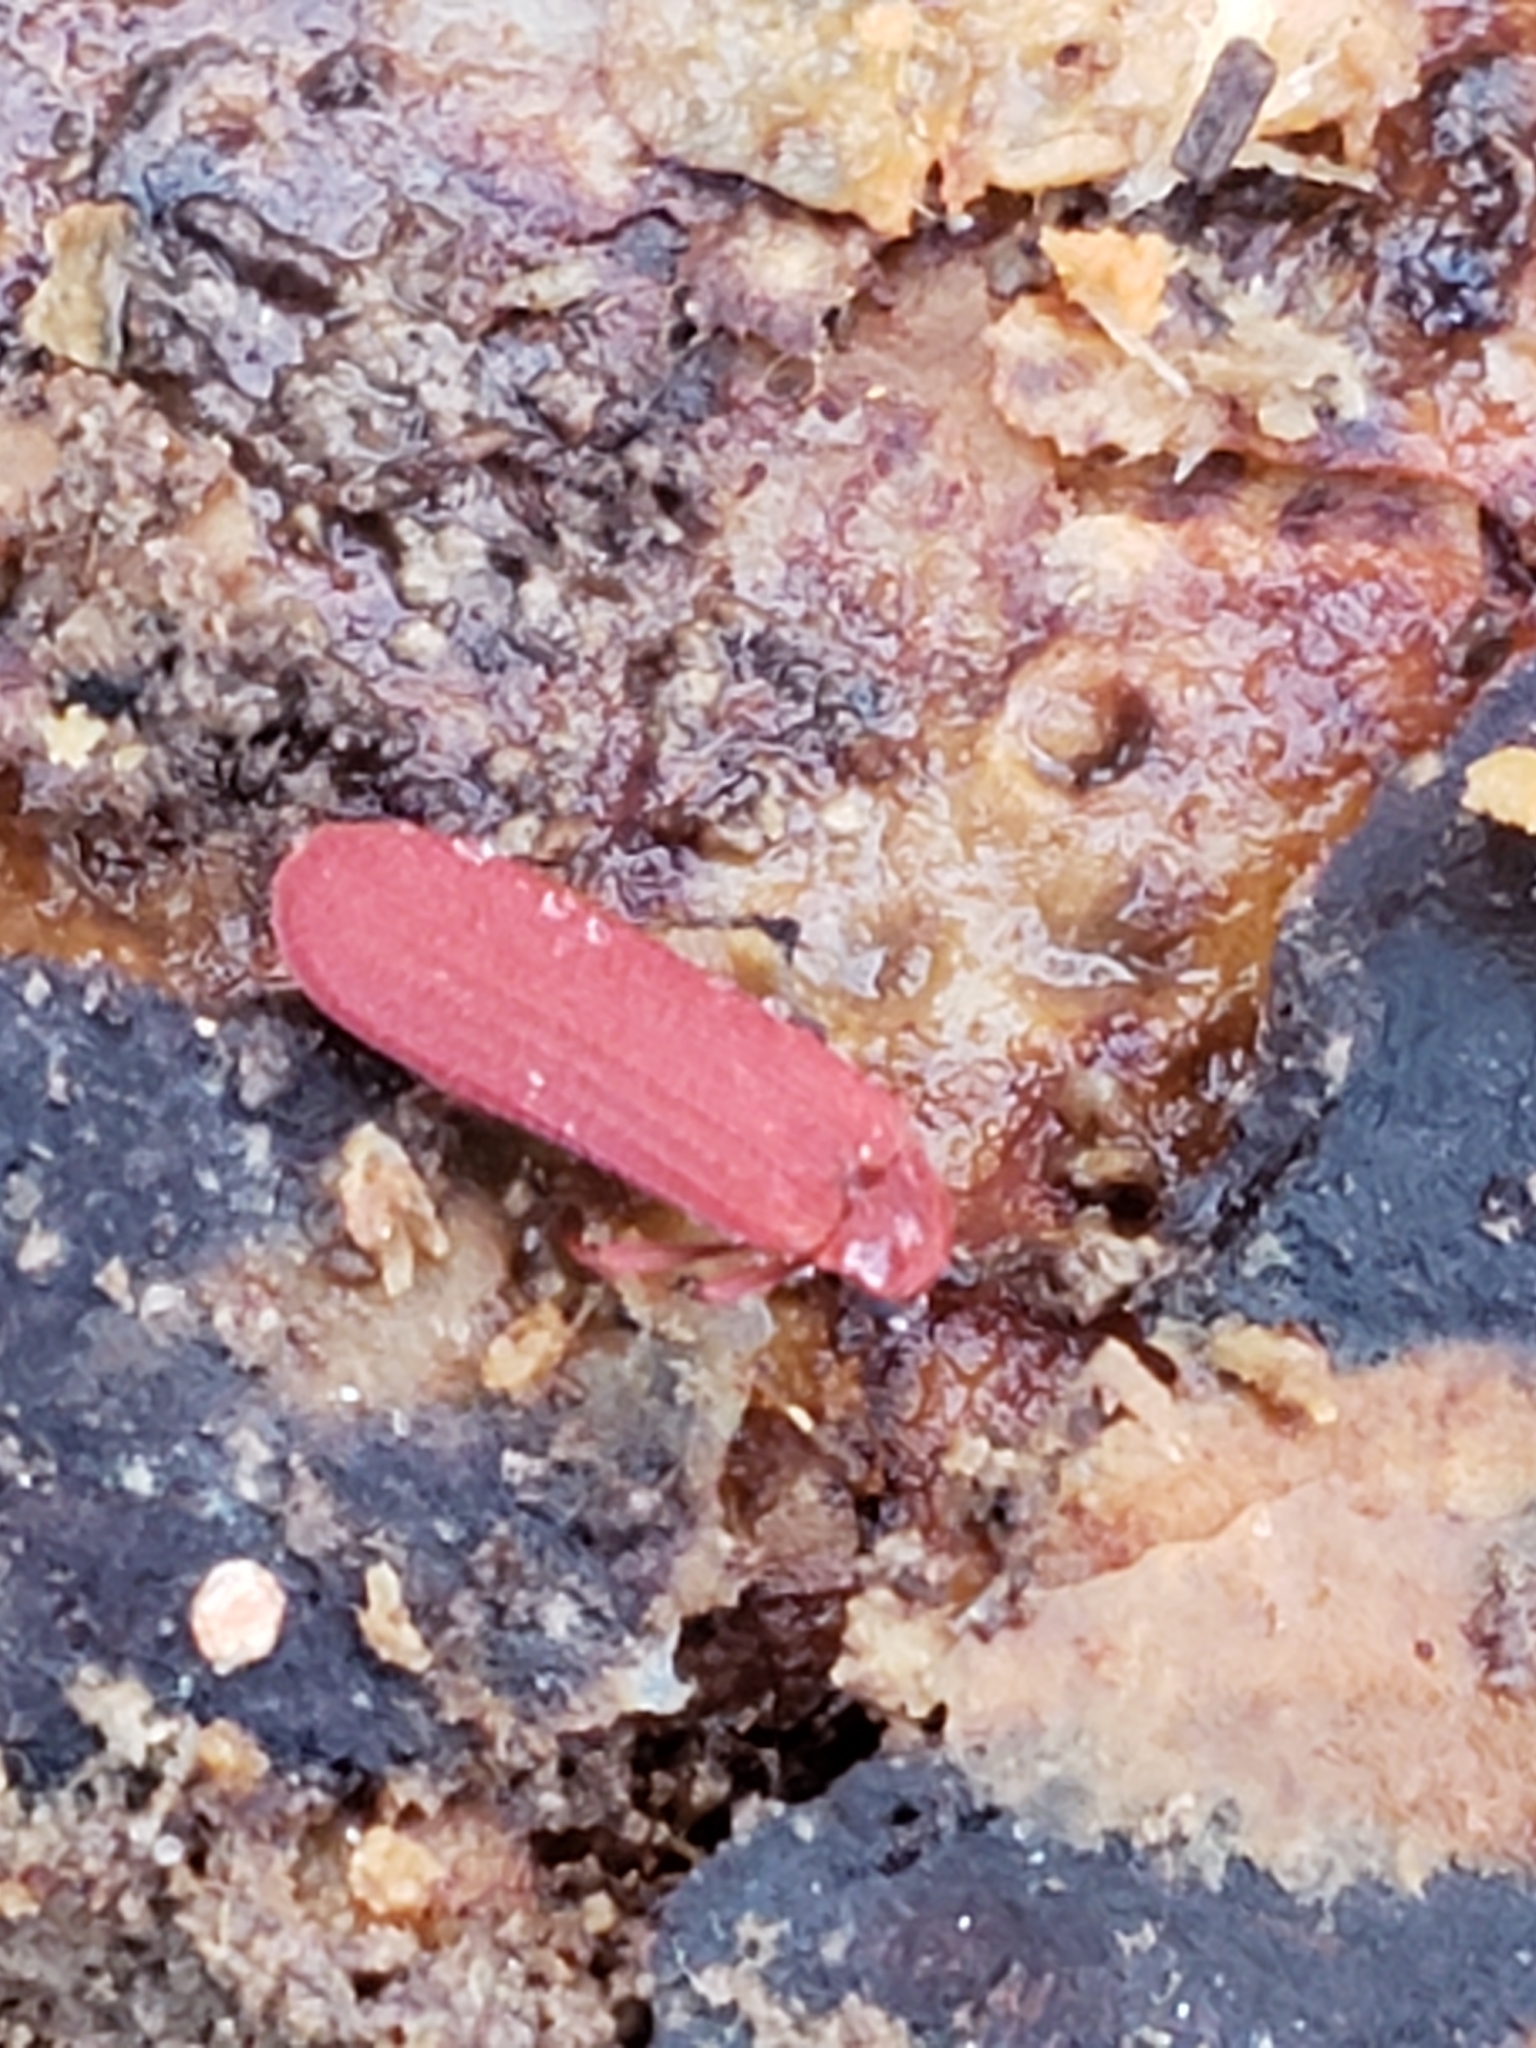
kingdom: Animalia
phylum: Arthropoda
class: Insecta
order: Coleoptera
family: Lycidae
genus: Punicealis
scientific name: Punicealis
